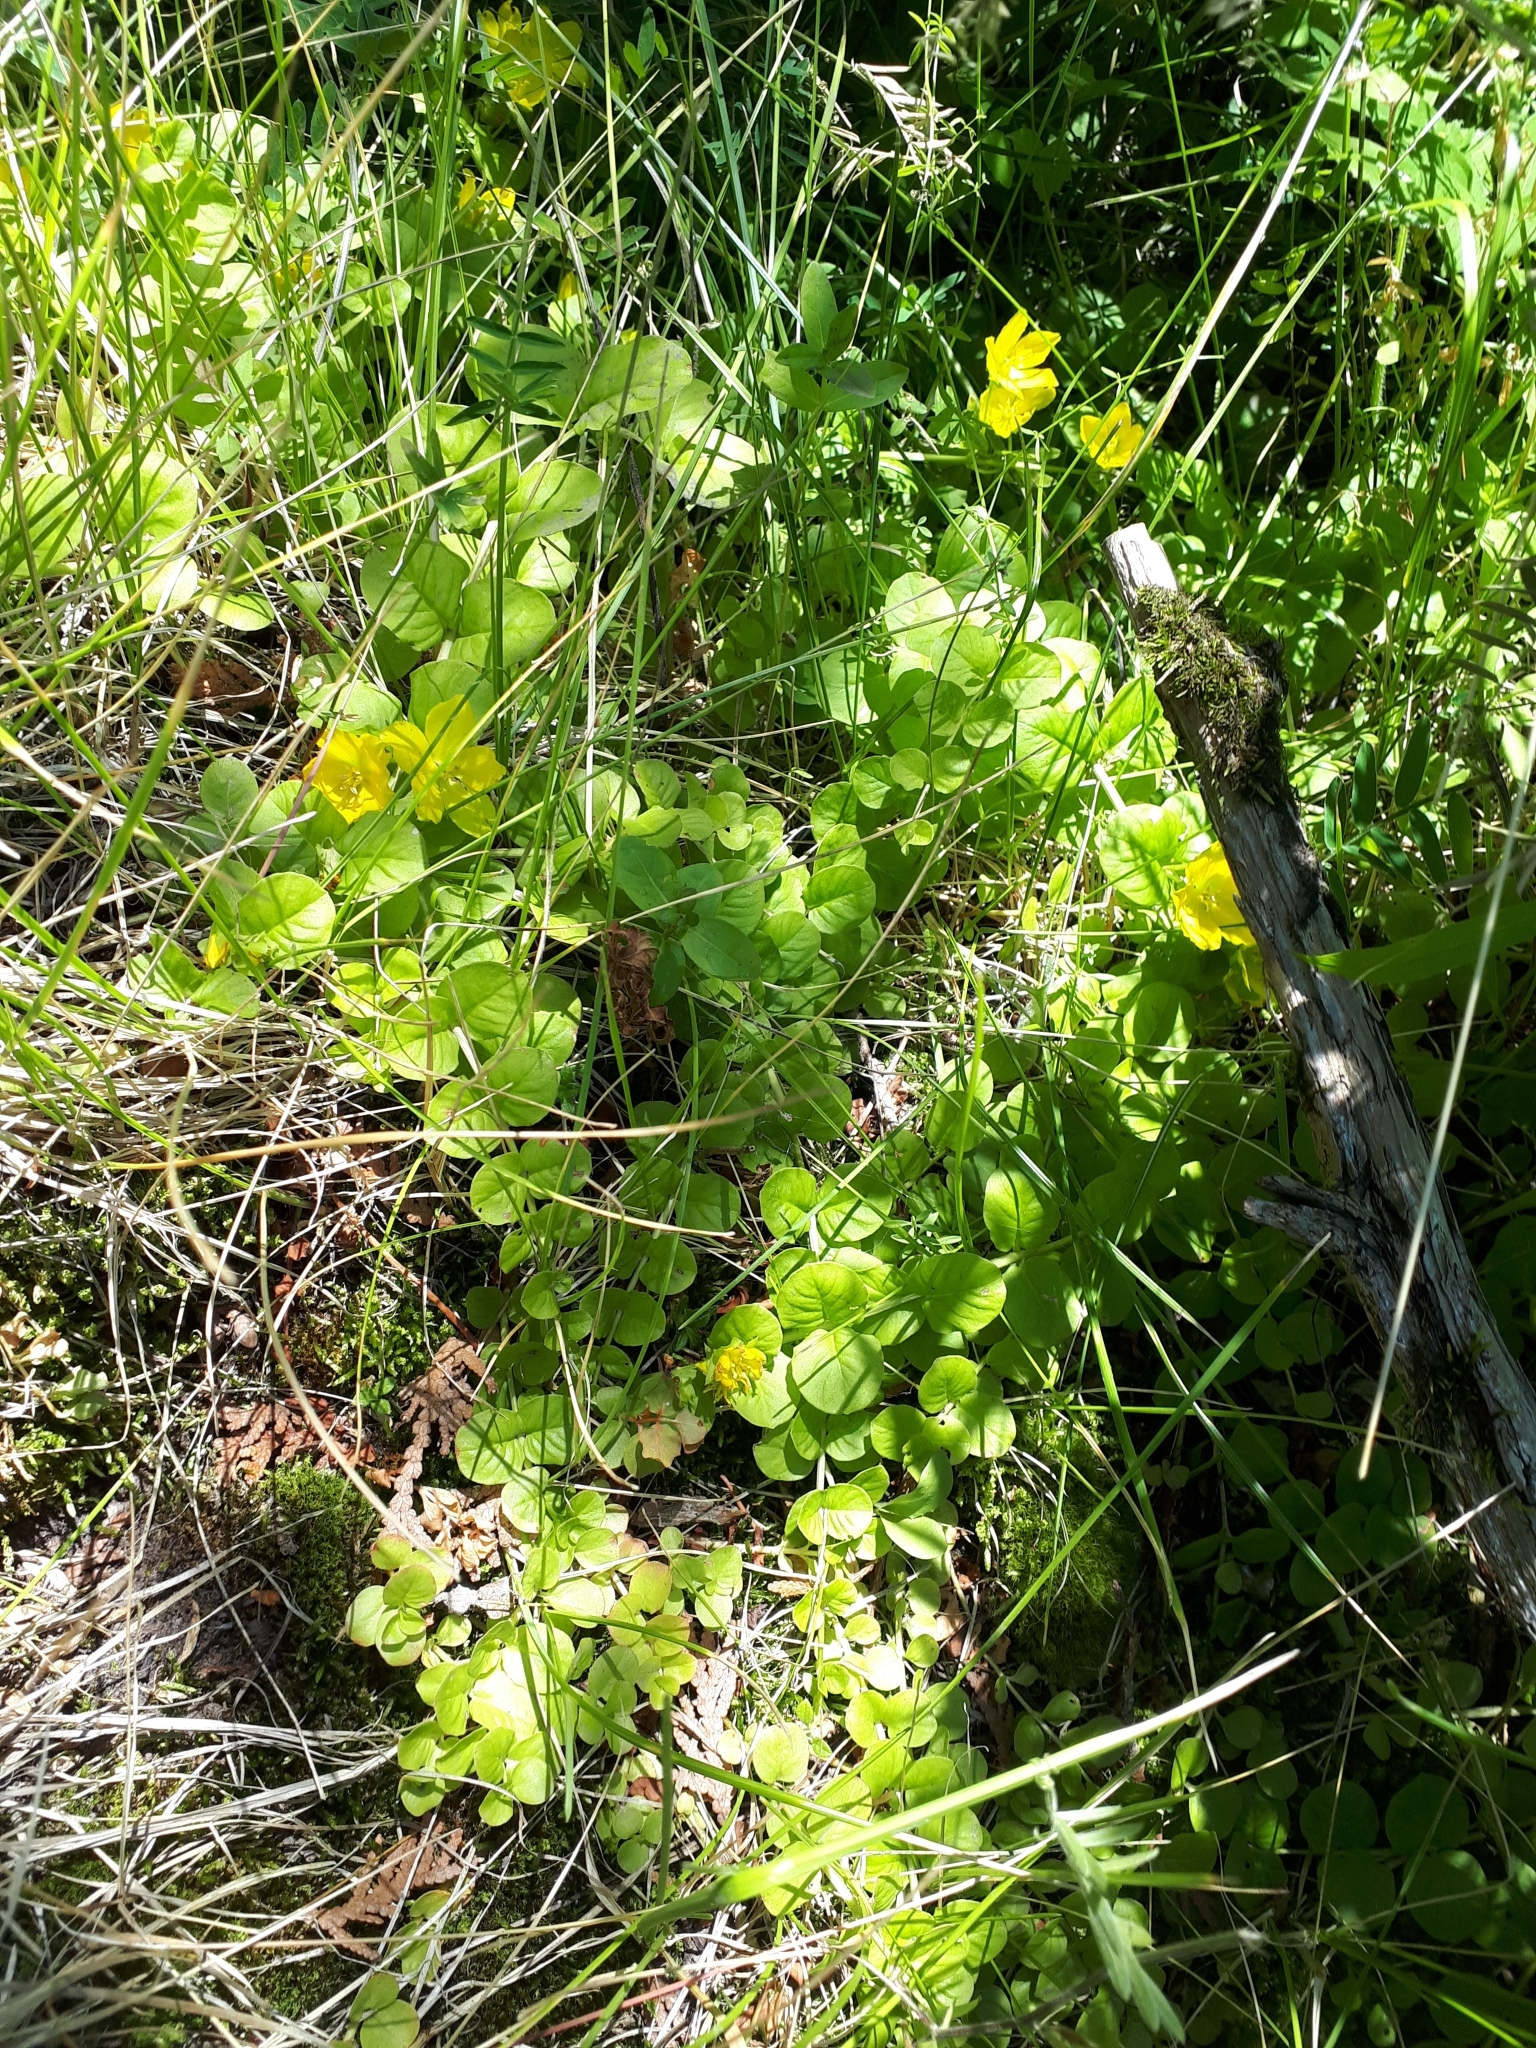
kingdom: Plantae
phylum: Tracheophyta
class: Magnoliopsida
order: Ericales
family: Primulaceae
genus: Lysimachia
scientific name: Lysimachia nummularia
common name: Moneywort
